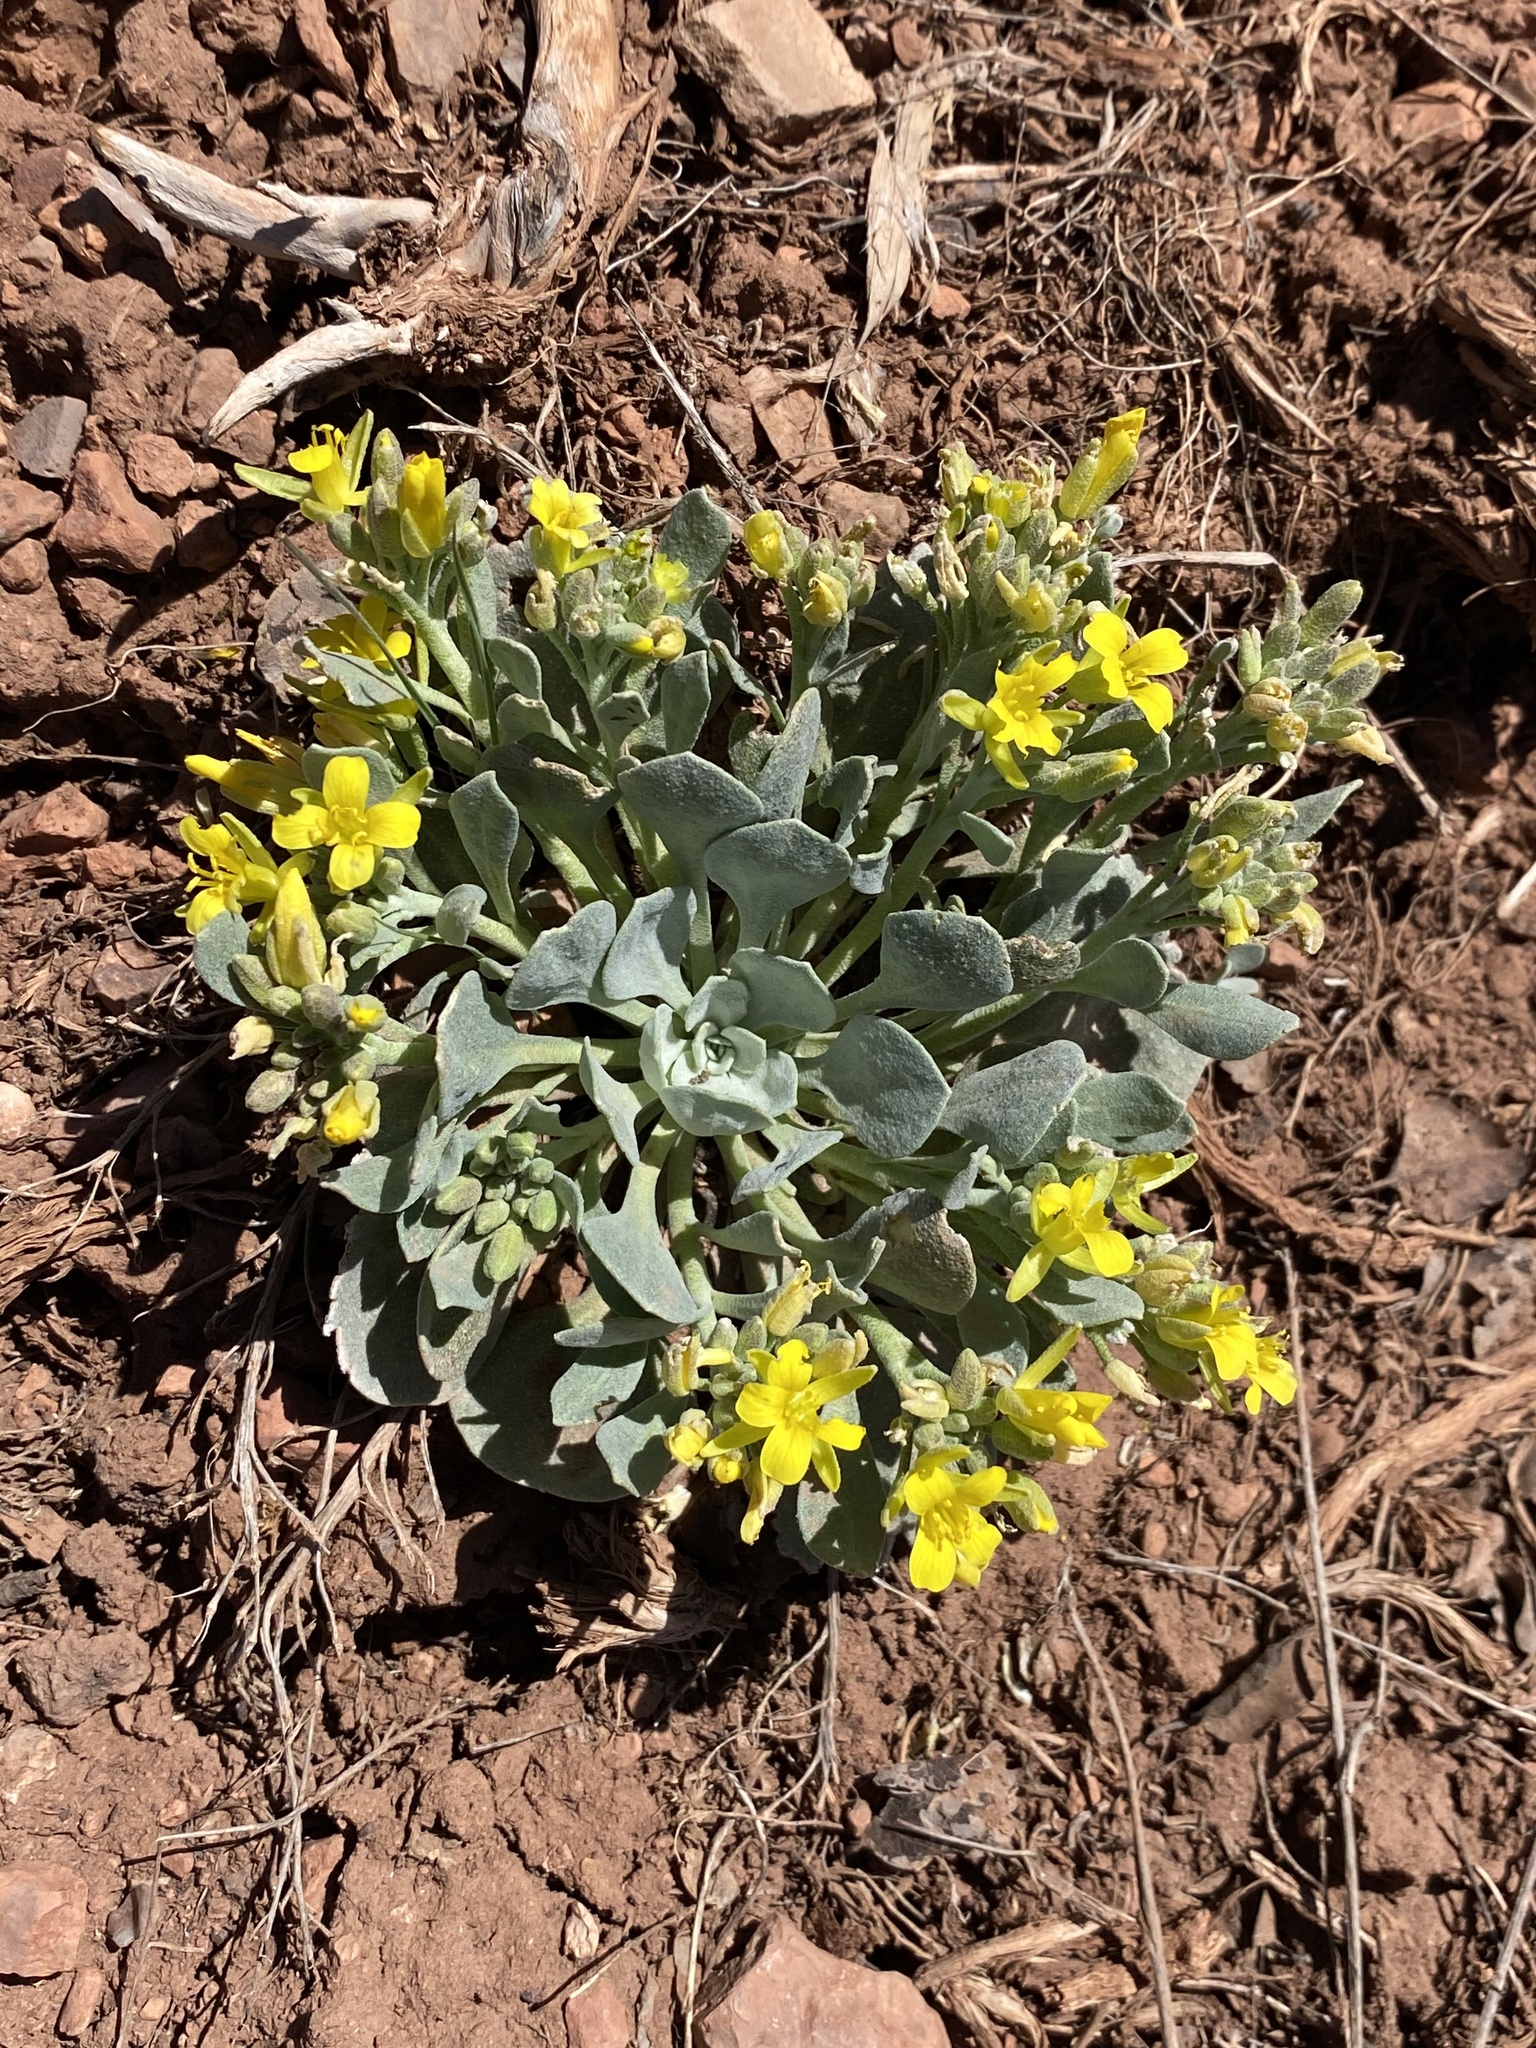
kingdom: Plantae
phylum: Tracheophyta
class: Magnoliopsida
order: Brassicales
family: Brassicaceae
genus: Physaria
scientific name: Physaria chambersii
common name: Chamber's twinpod
